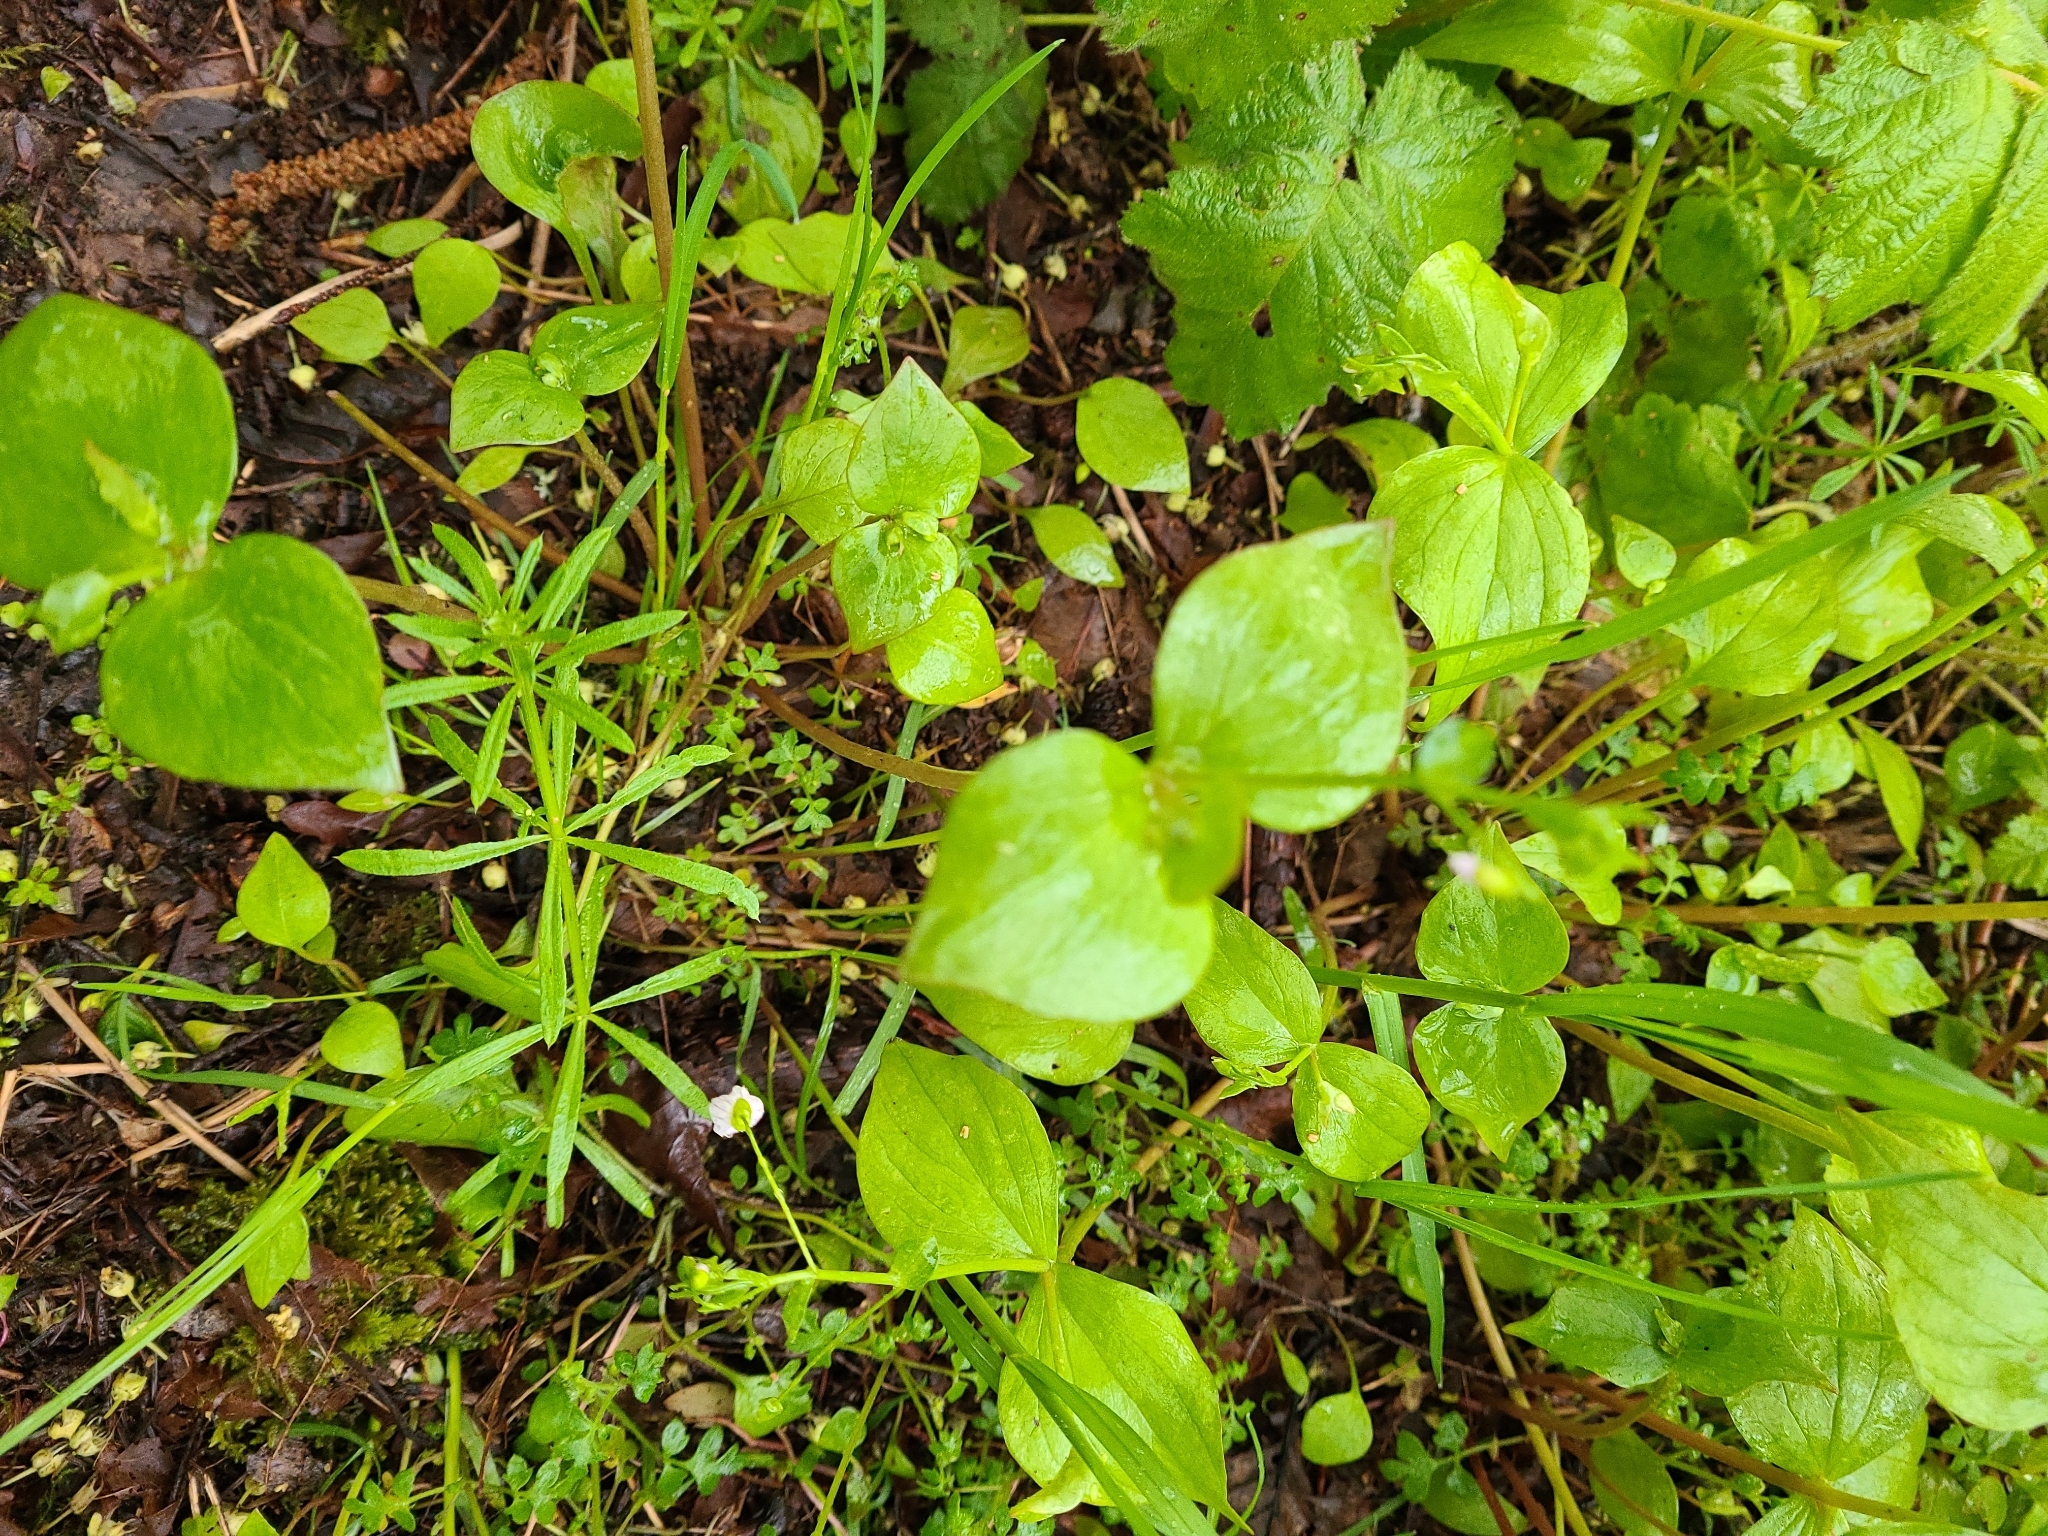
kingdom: Plantae
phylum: Tracheophyta
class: Magnoliopsida
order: Caryophyllales
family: Montiaceae
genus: Claytonia
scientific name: Claytonia sibirica
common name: Pink purslane
